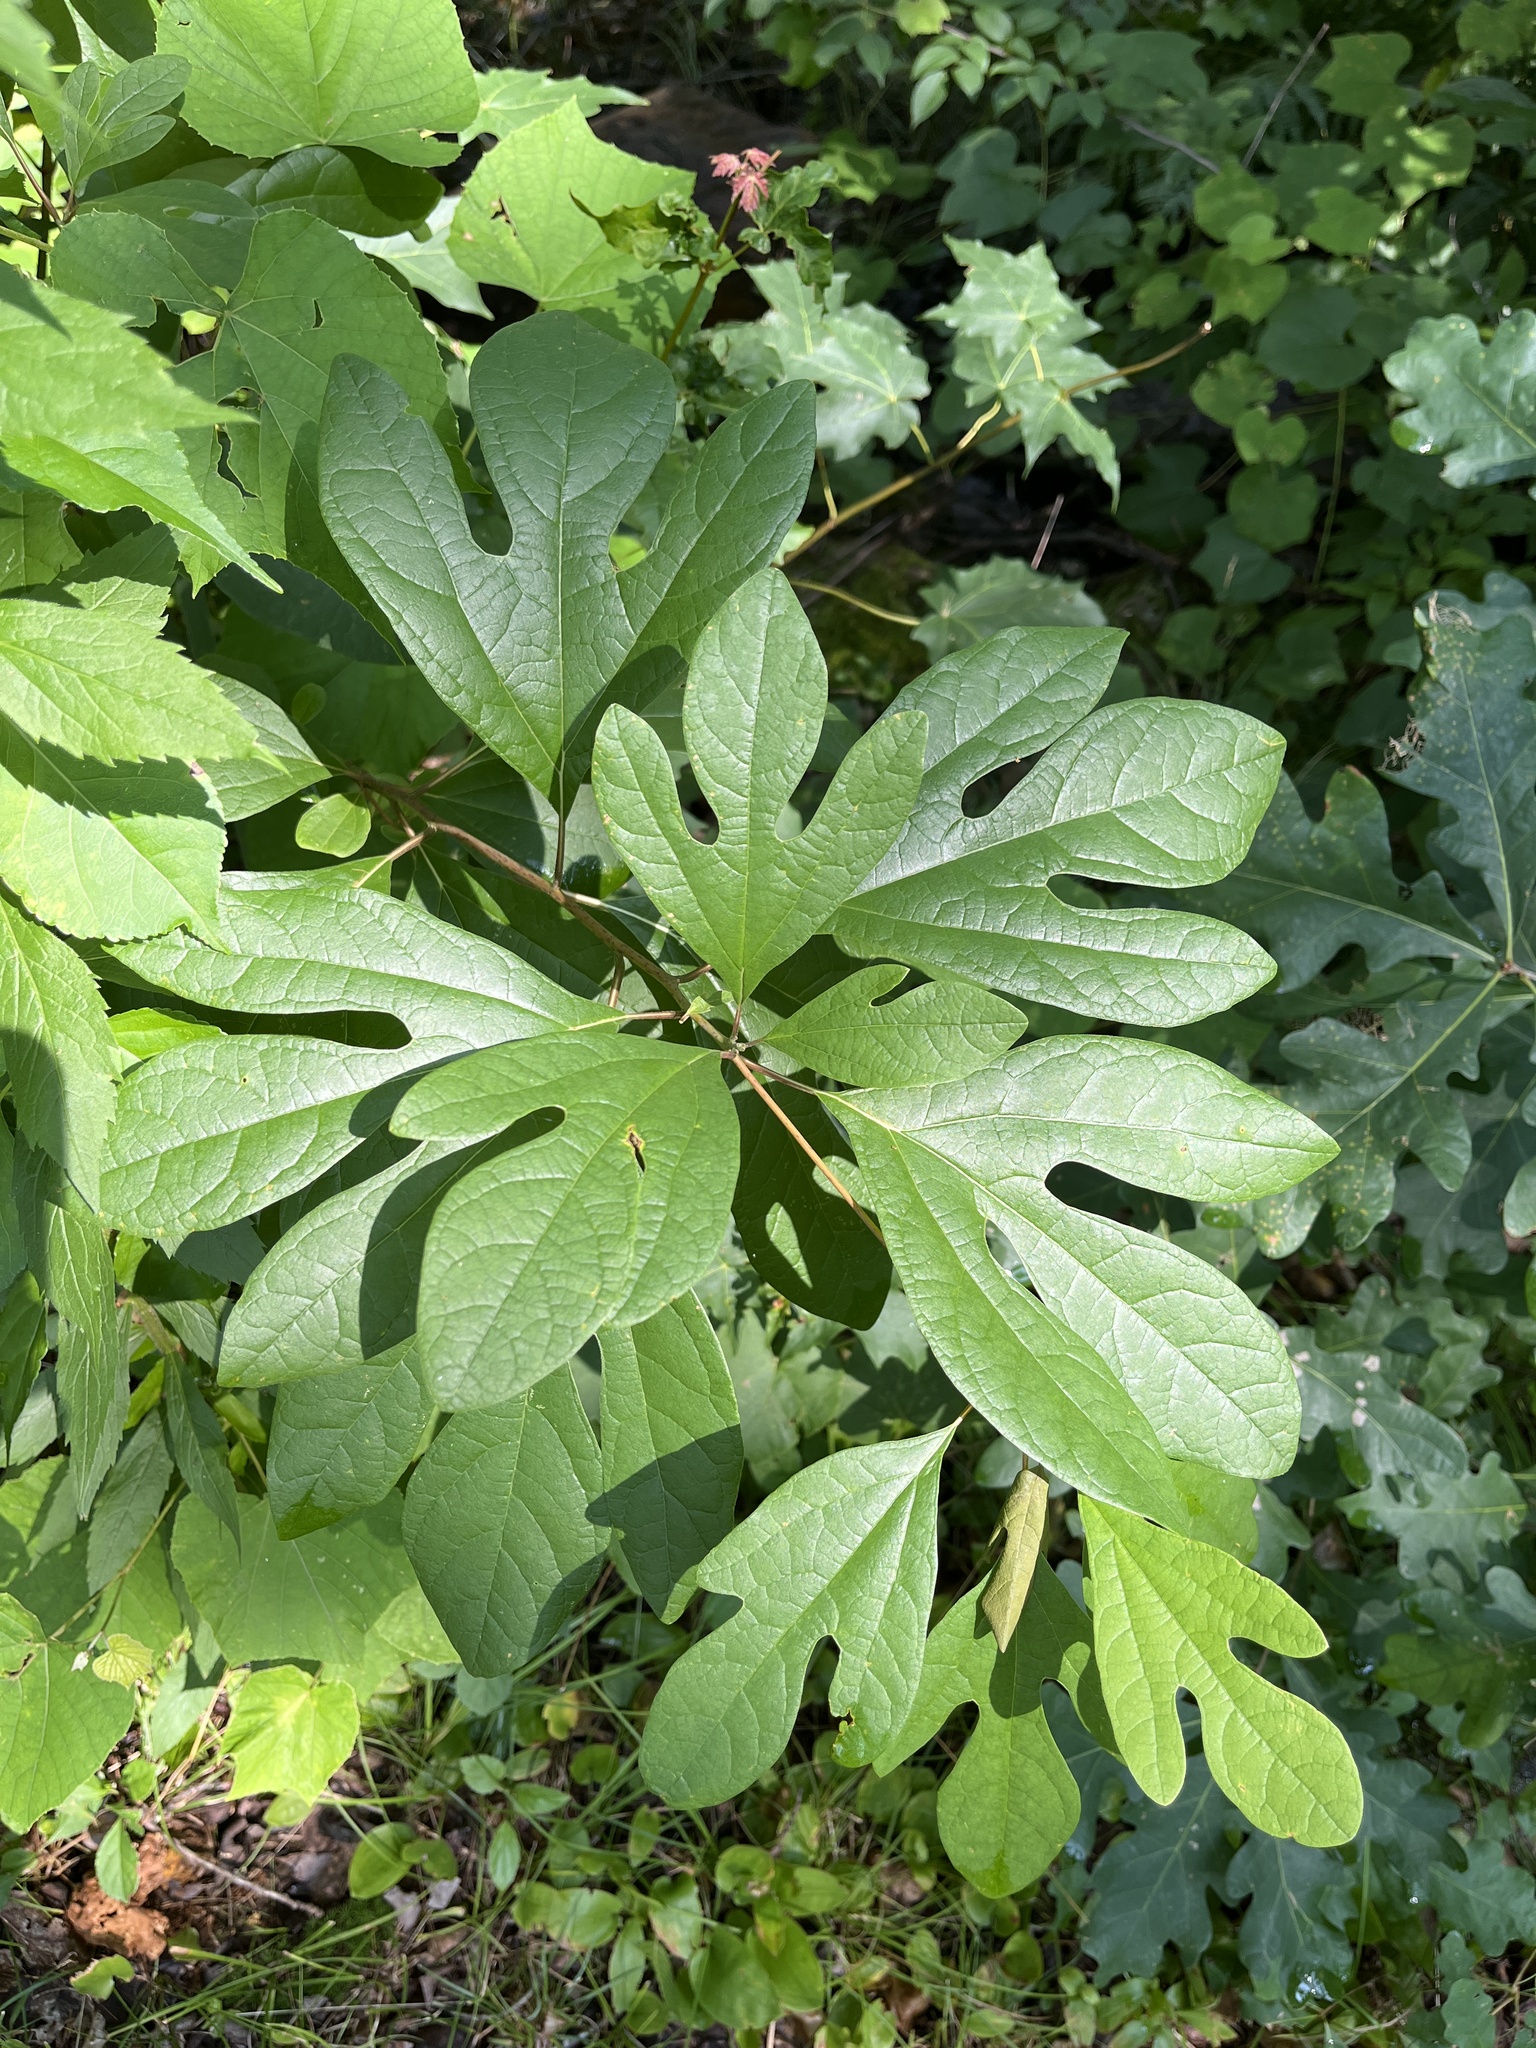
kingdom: Plantae
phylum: Tracheophyta
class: Magnoliopsida
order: Laurales
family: Lauraceae
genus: Sassafras
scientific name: Sassafras albidum
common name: Sassafras
